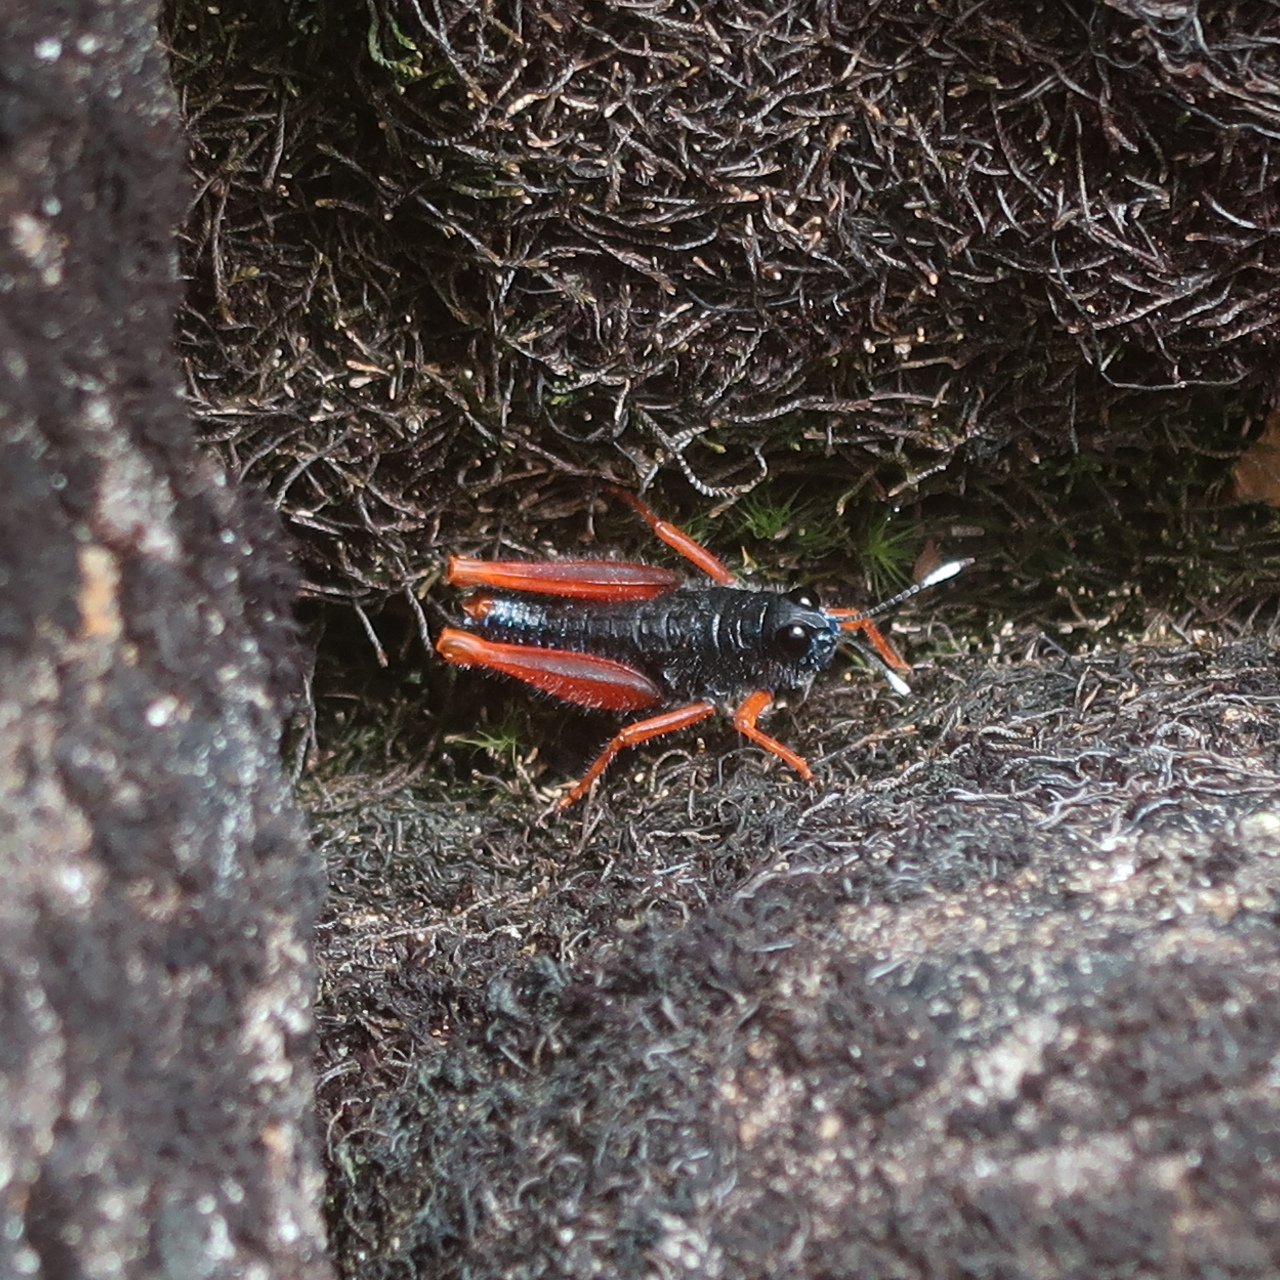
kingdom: Animalia
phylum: Arthropoda
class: Insecta
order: Orthoptera
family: Acrididae
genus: Tasmanalpina
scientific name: Tasmanalpina clavata
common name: Tasmanian velvet grasshopper
